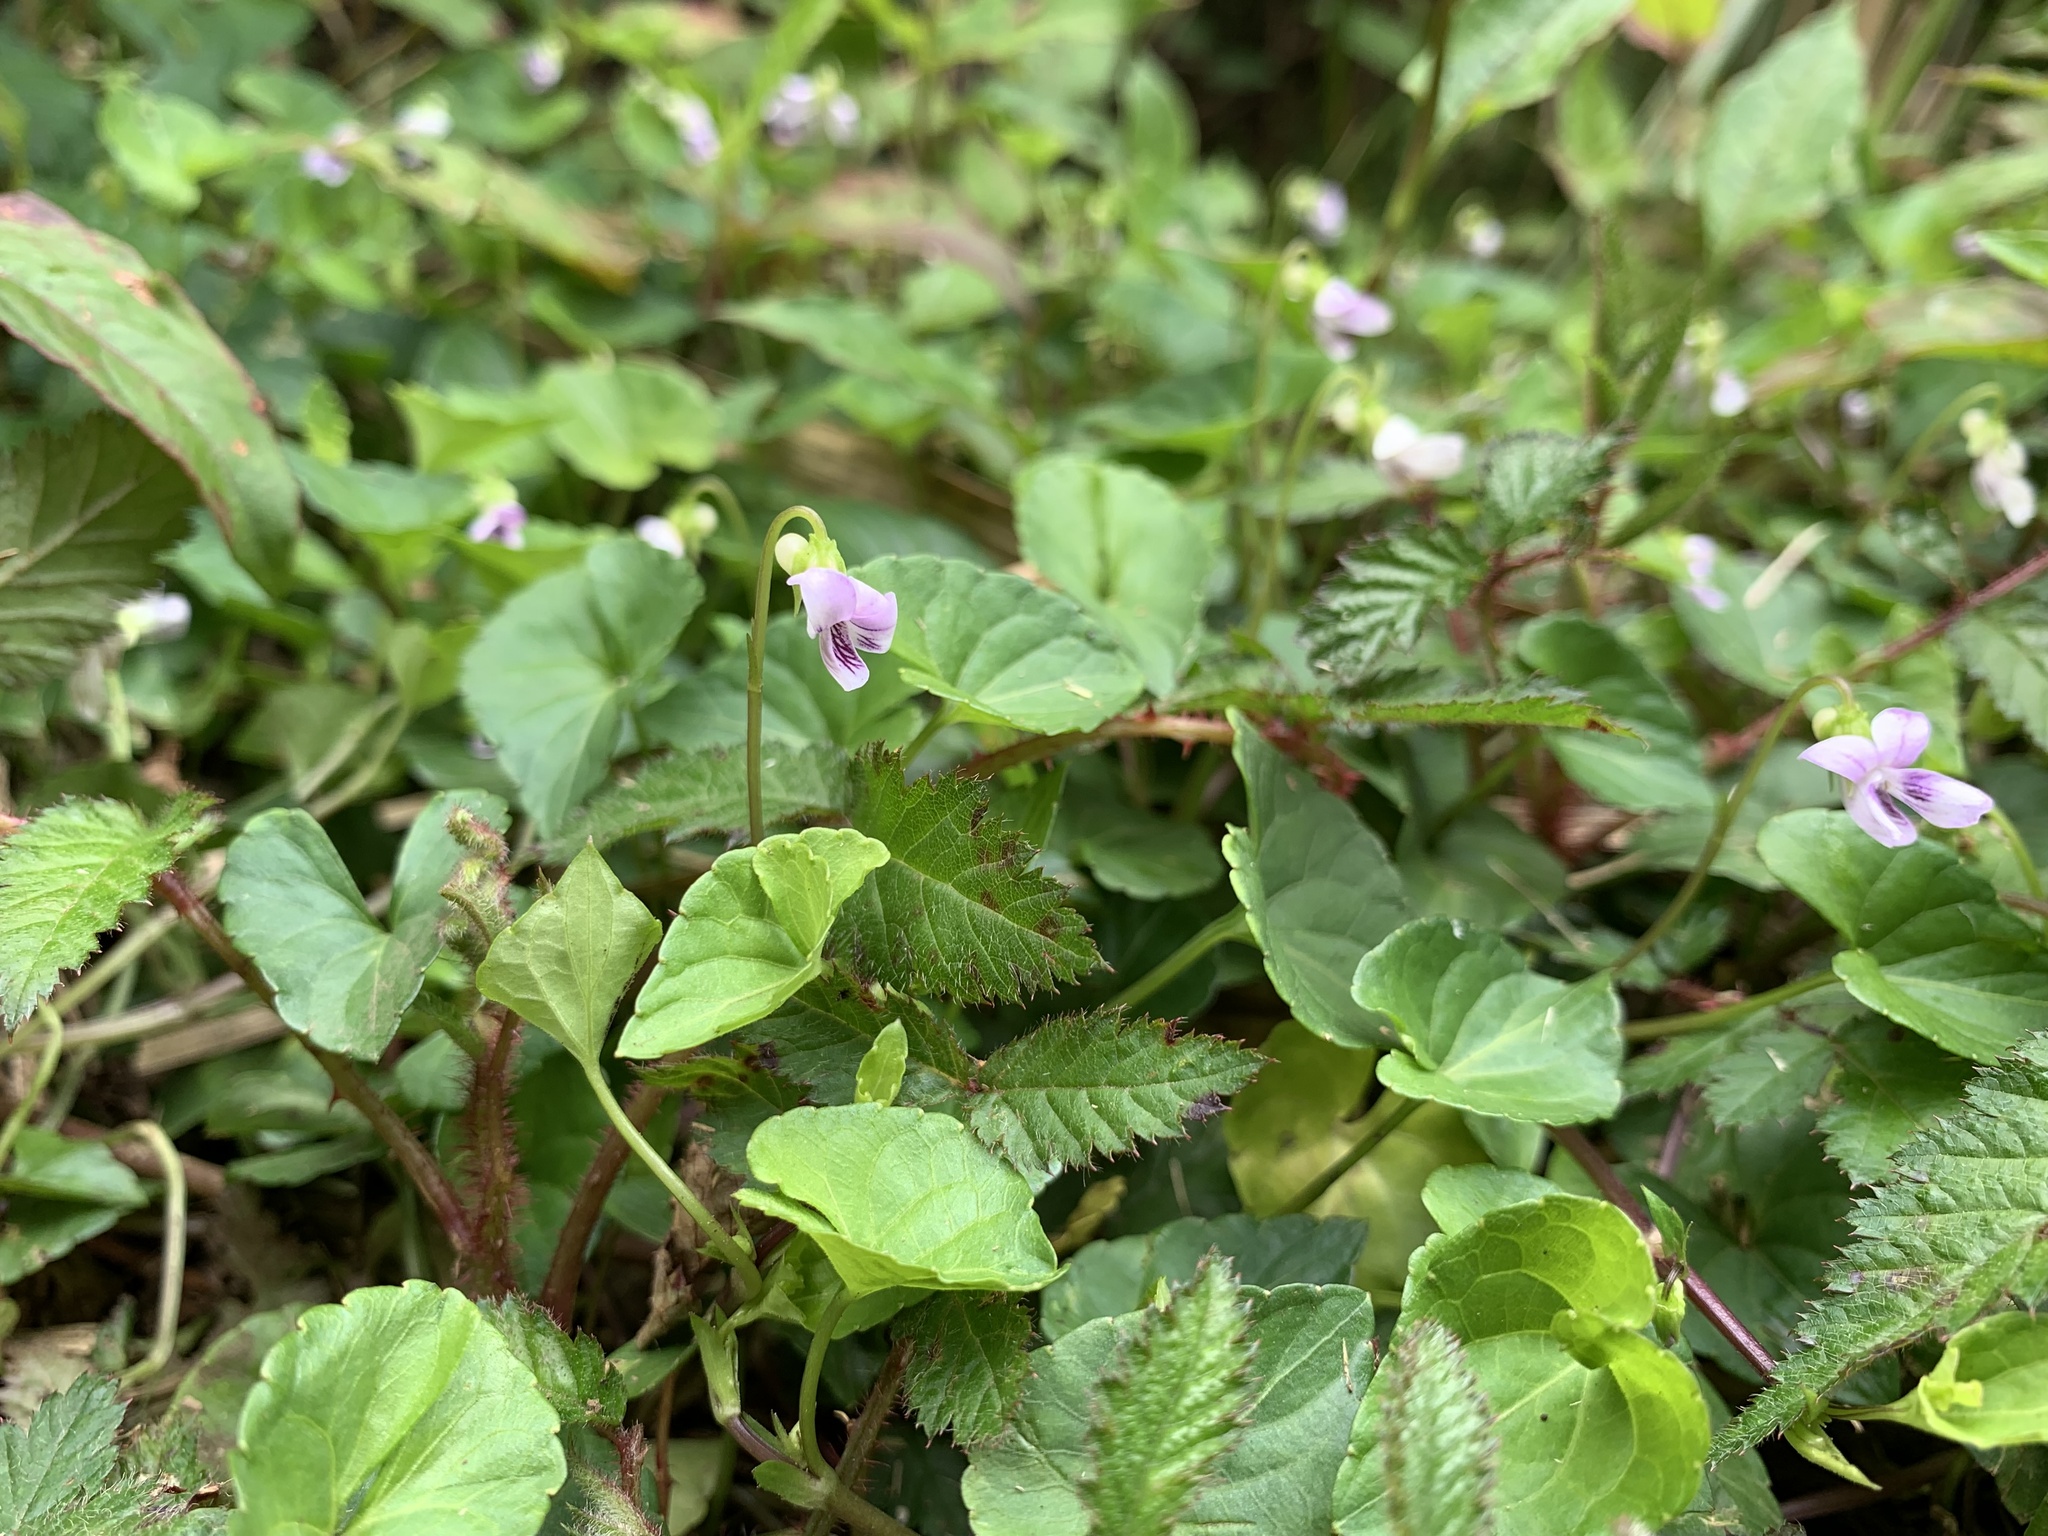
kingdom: Plantae
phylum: Tracheophyta
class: Magnoliopsida
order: Malpighiales
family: Violaceae
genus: Viola
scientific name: Viola
